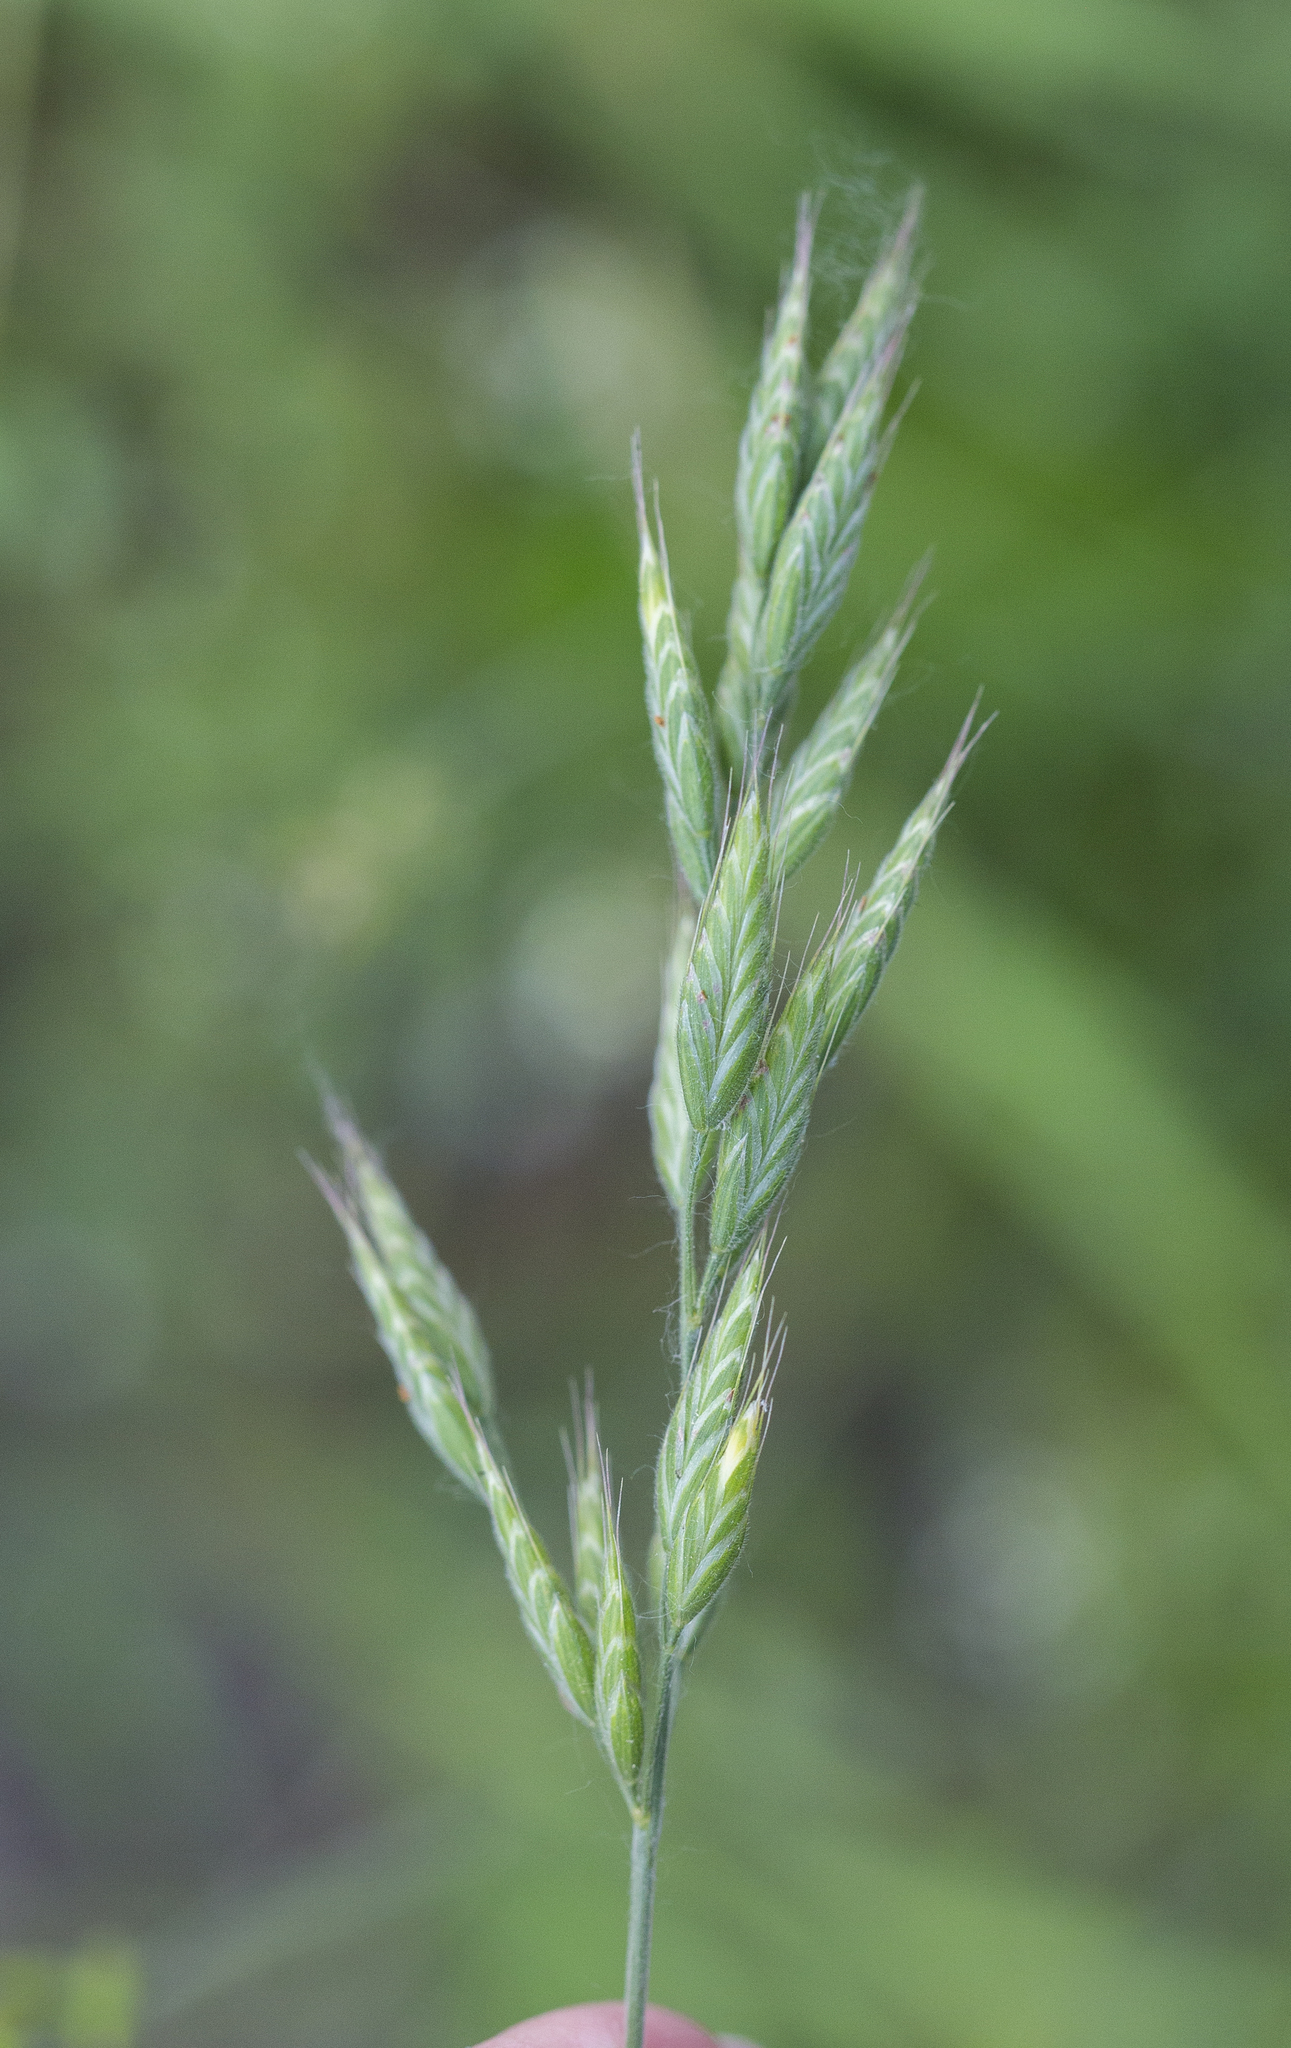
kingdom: Plantae
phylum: Tracheophyta
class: Liliopsida
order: Poales
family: Poaceae
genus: Bromus
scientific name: Bromus hordeaceus
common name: Soft brome
